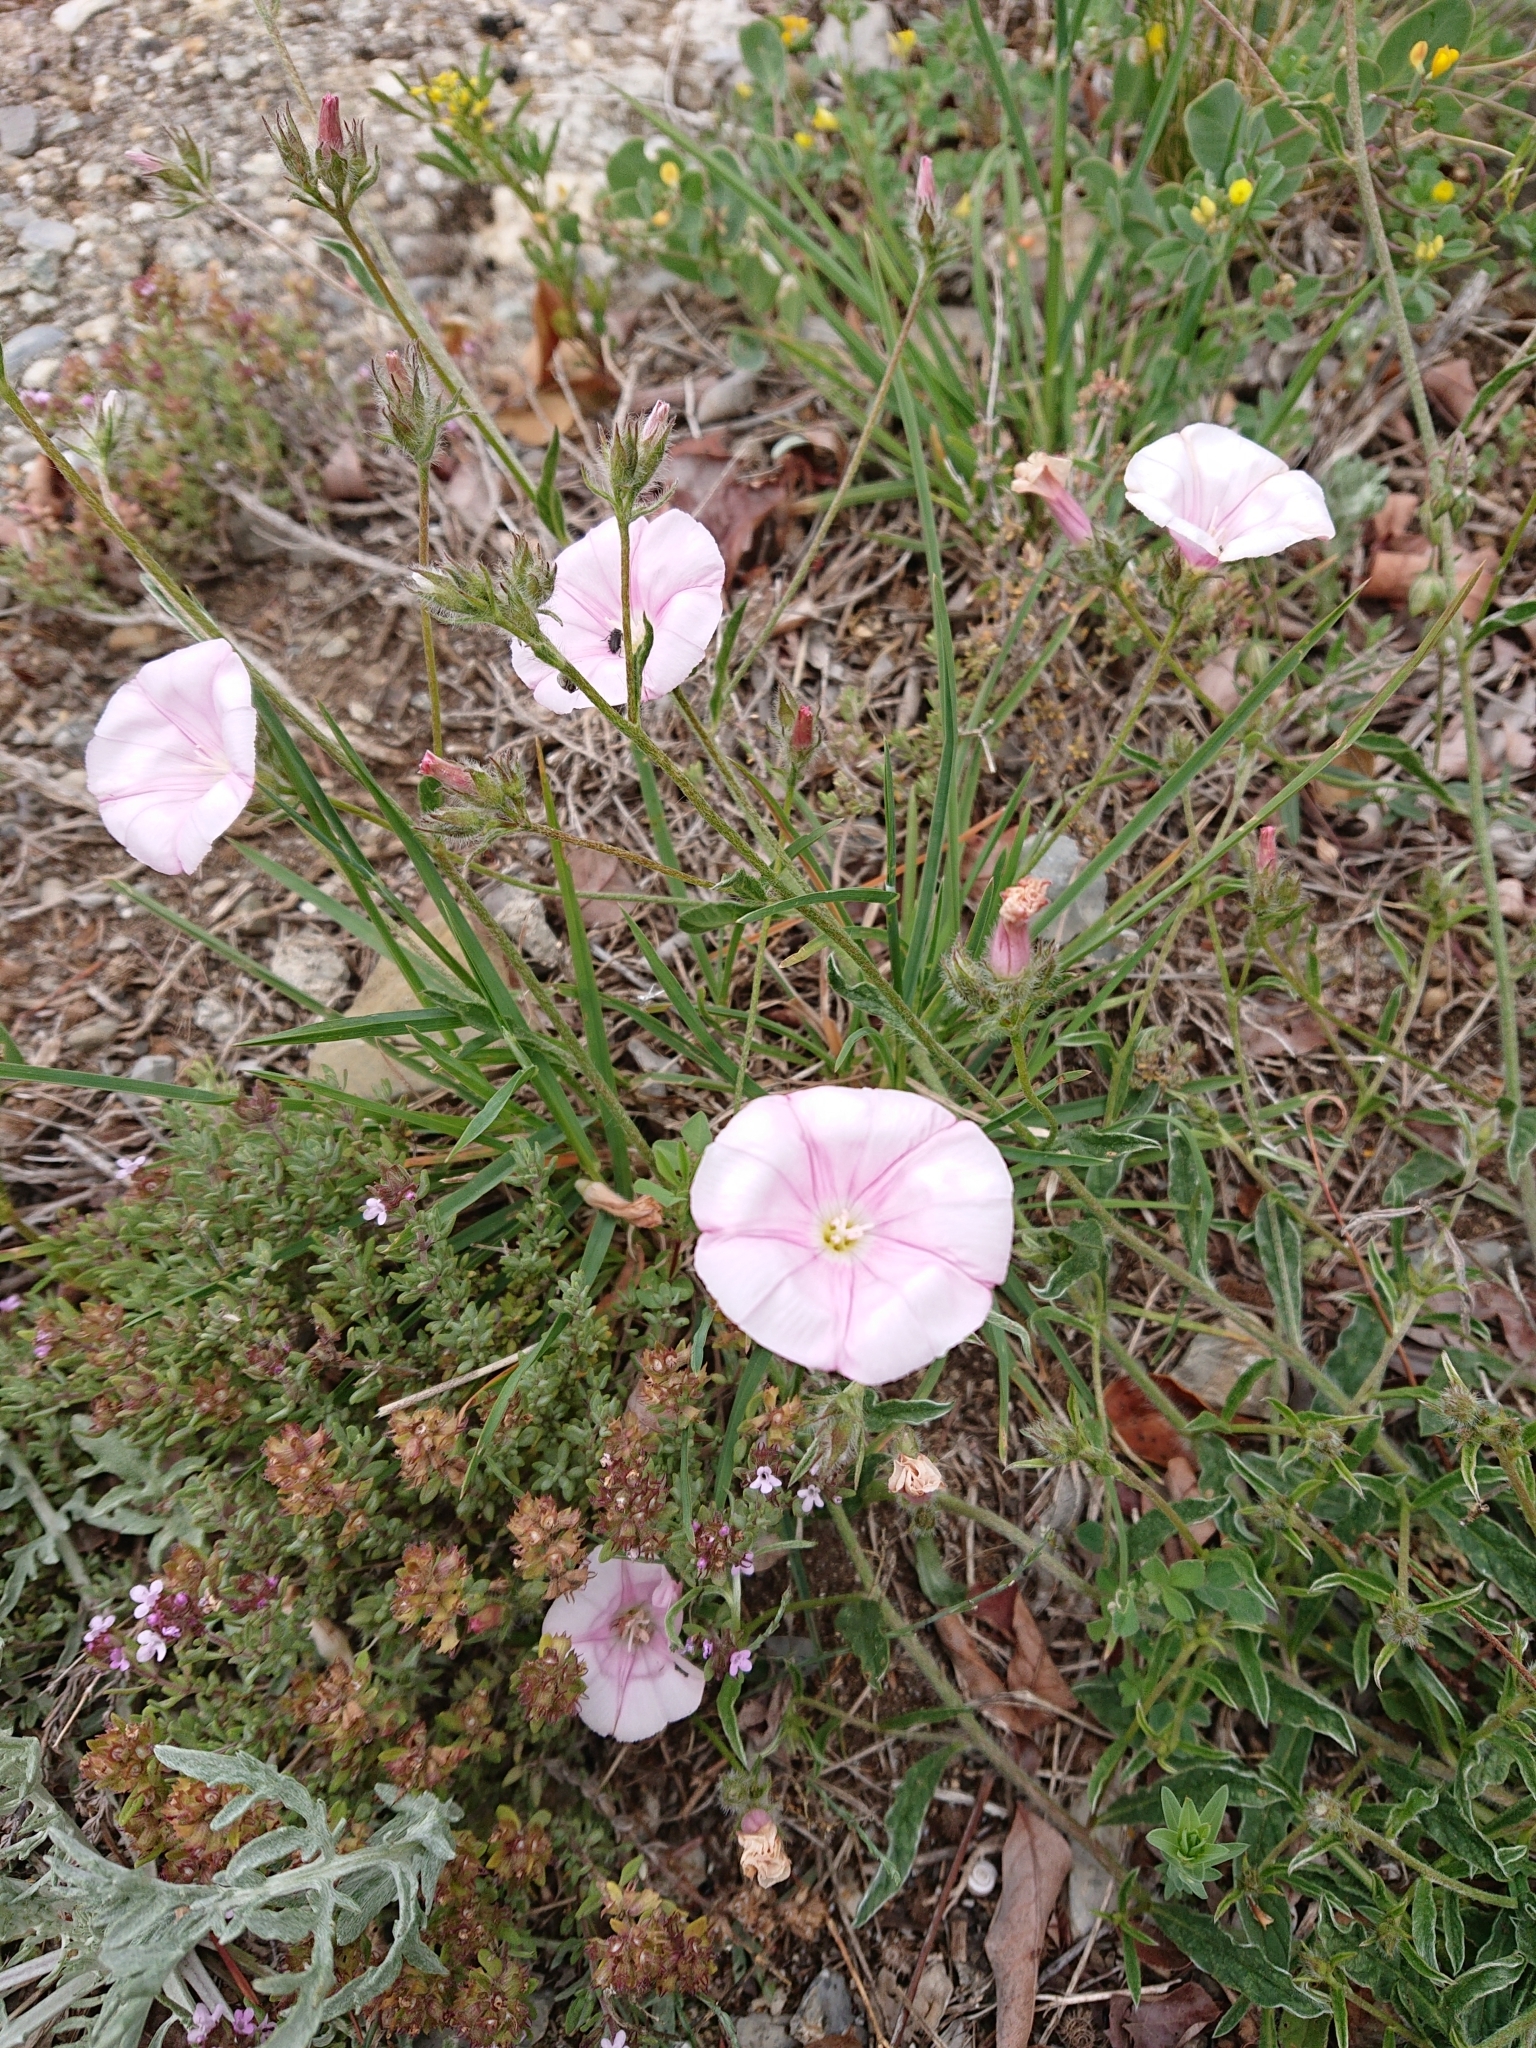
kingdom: Plantae
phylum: Tracheophyta
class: Magnoliopsida
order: Solanales
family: Convolvulaceae
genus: Convolvulus
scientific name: Convolvulus cantabrica
